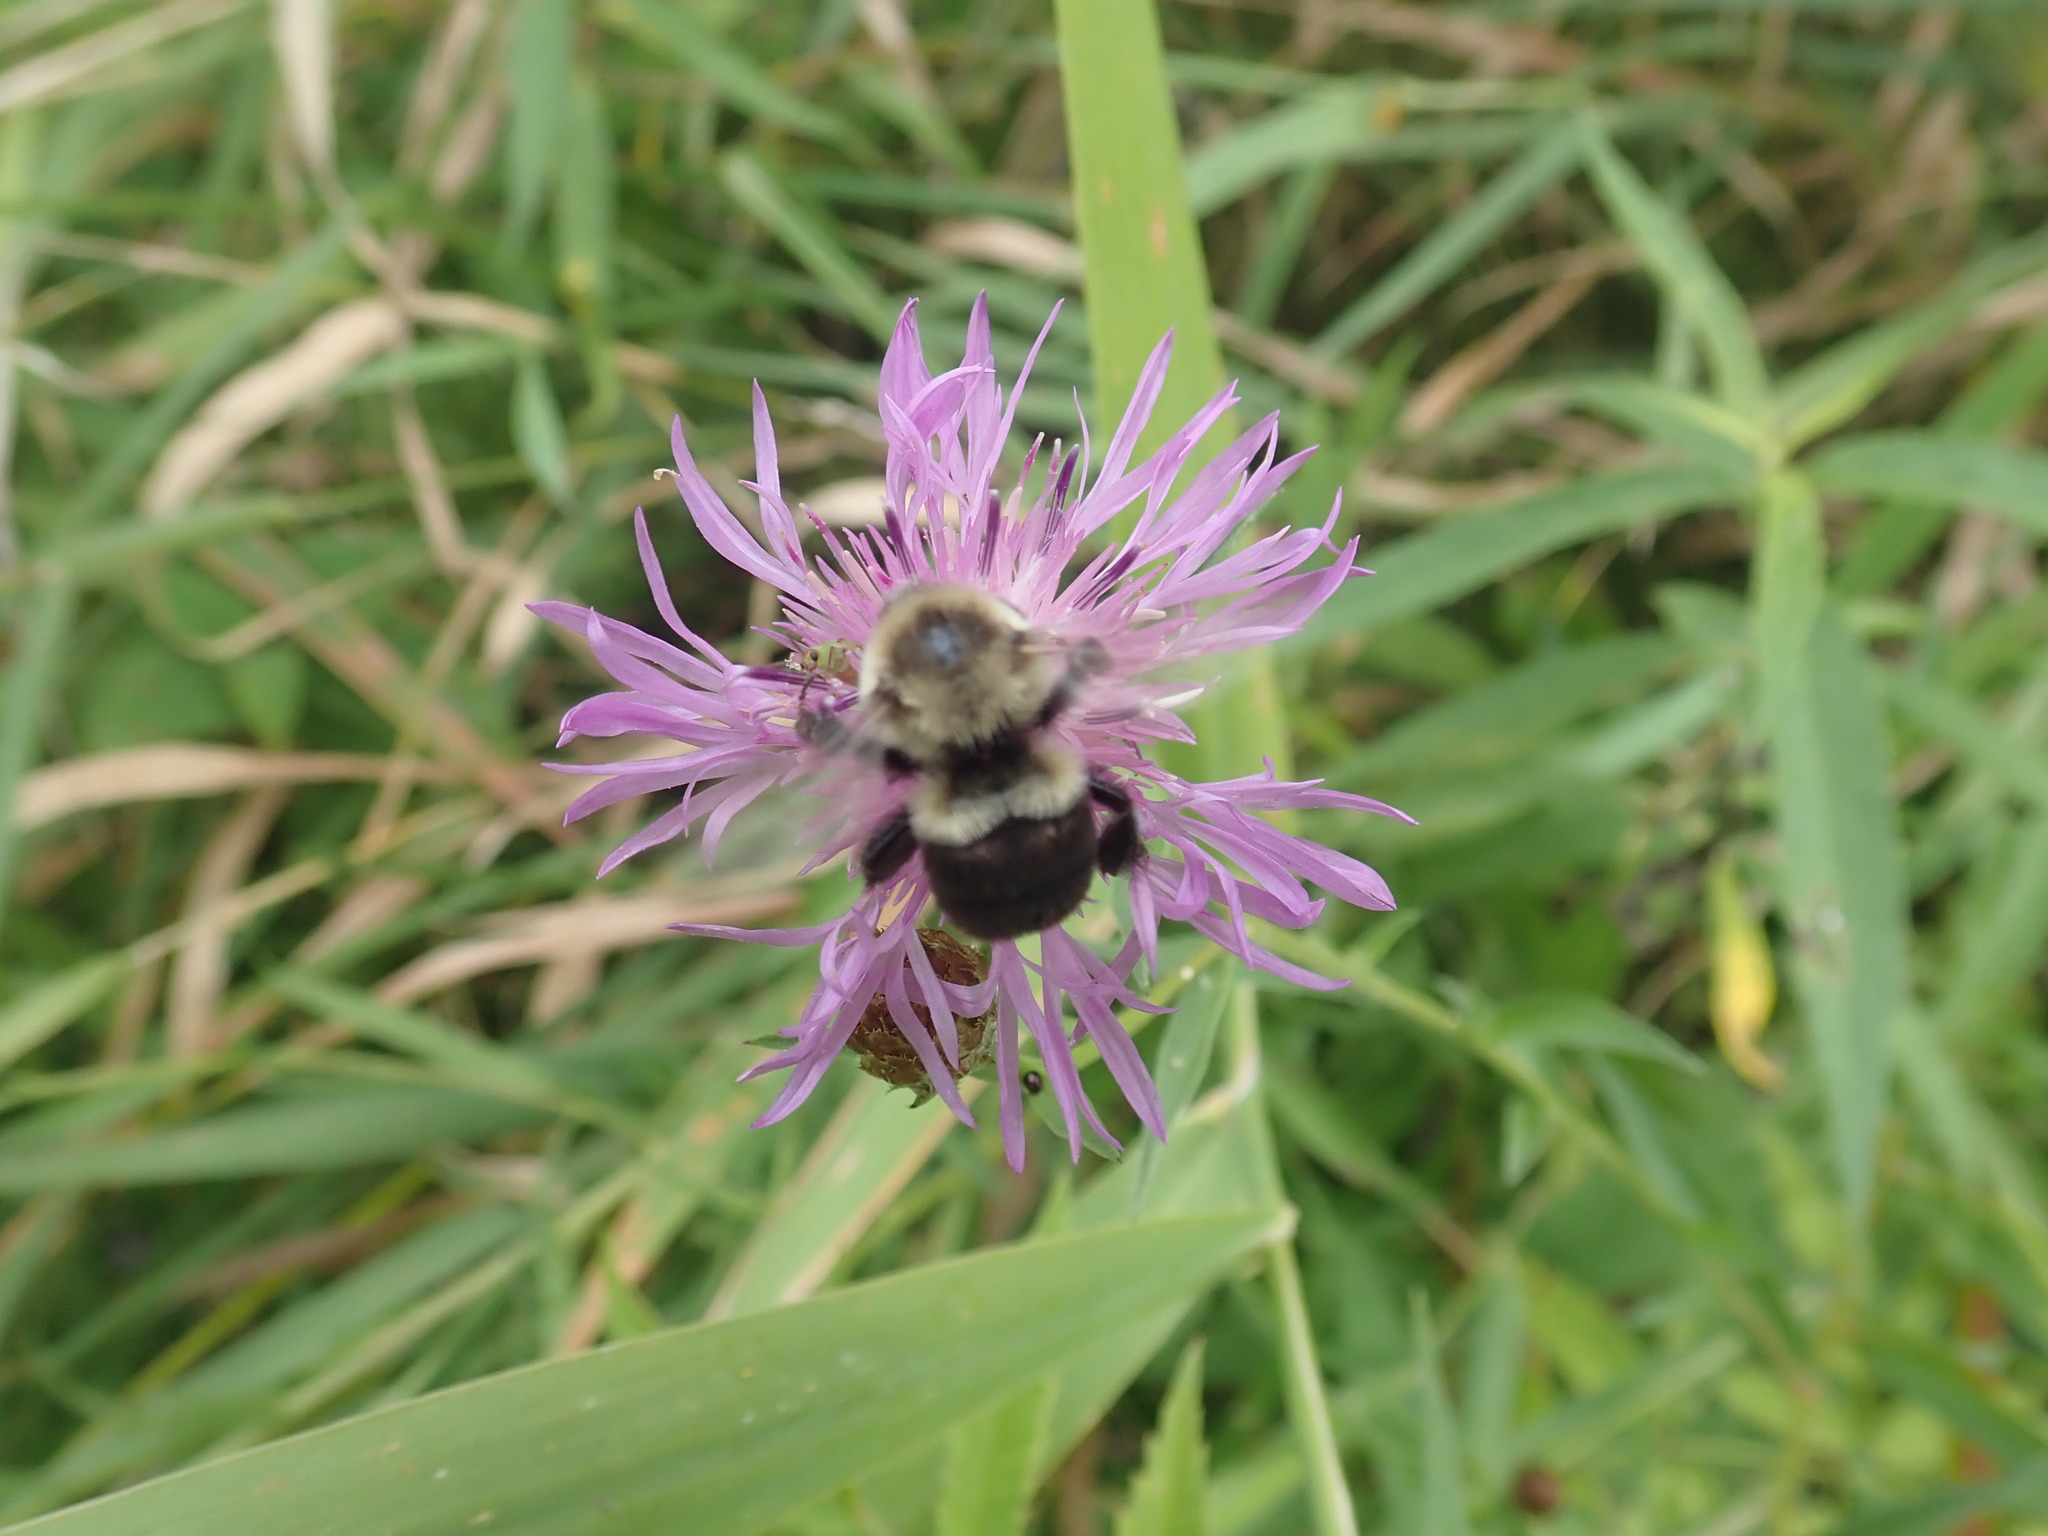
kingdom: Animalia
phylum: Arthropoda
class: Insecta
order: Hymenoptera
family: Apidae
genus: Bombus
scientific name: Bombus impatiens
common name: Common eastern bumble bee
